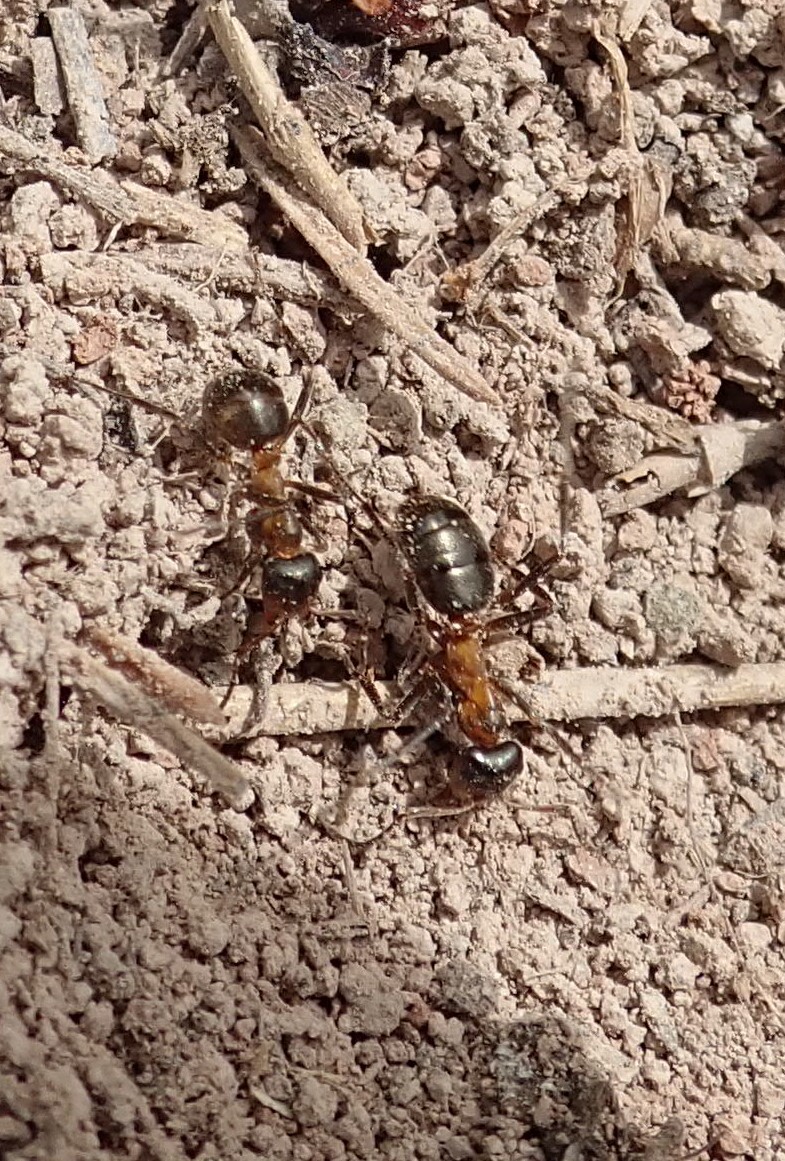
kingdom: Animalia
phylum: Arthropoda
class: Insecta
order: Hymenoptera
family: Formicidae
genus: Formica
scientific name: Formica ulkei
